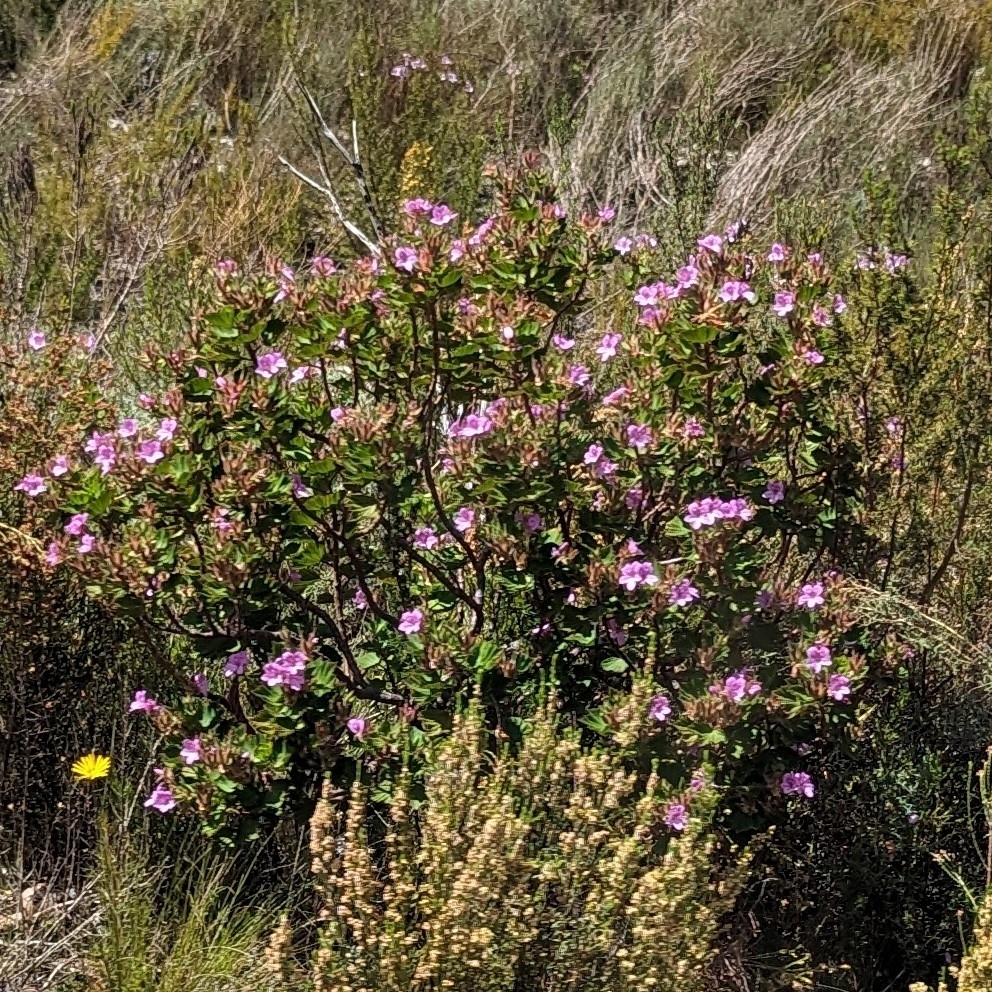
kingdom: Plantae
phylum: Tracheophyta
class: Magnoliopsida
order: Geraniales
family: Geraniaceae
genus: Pelargonium
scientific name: Pelargonium cucullatum
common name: Tree pelargonium
